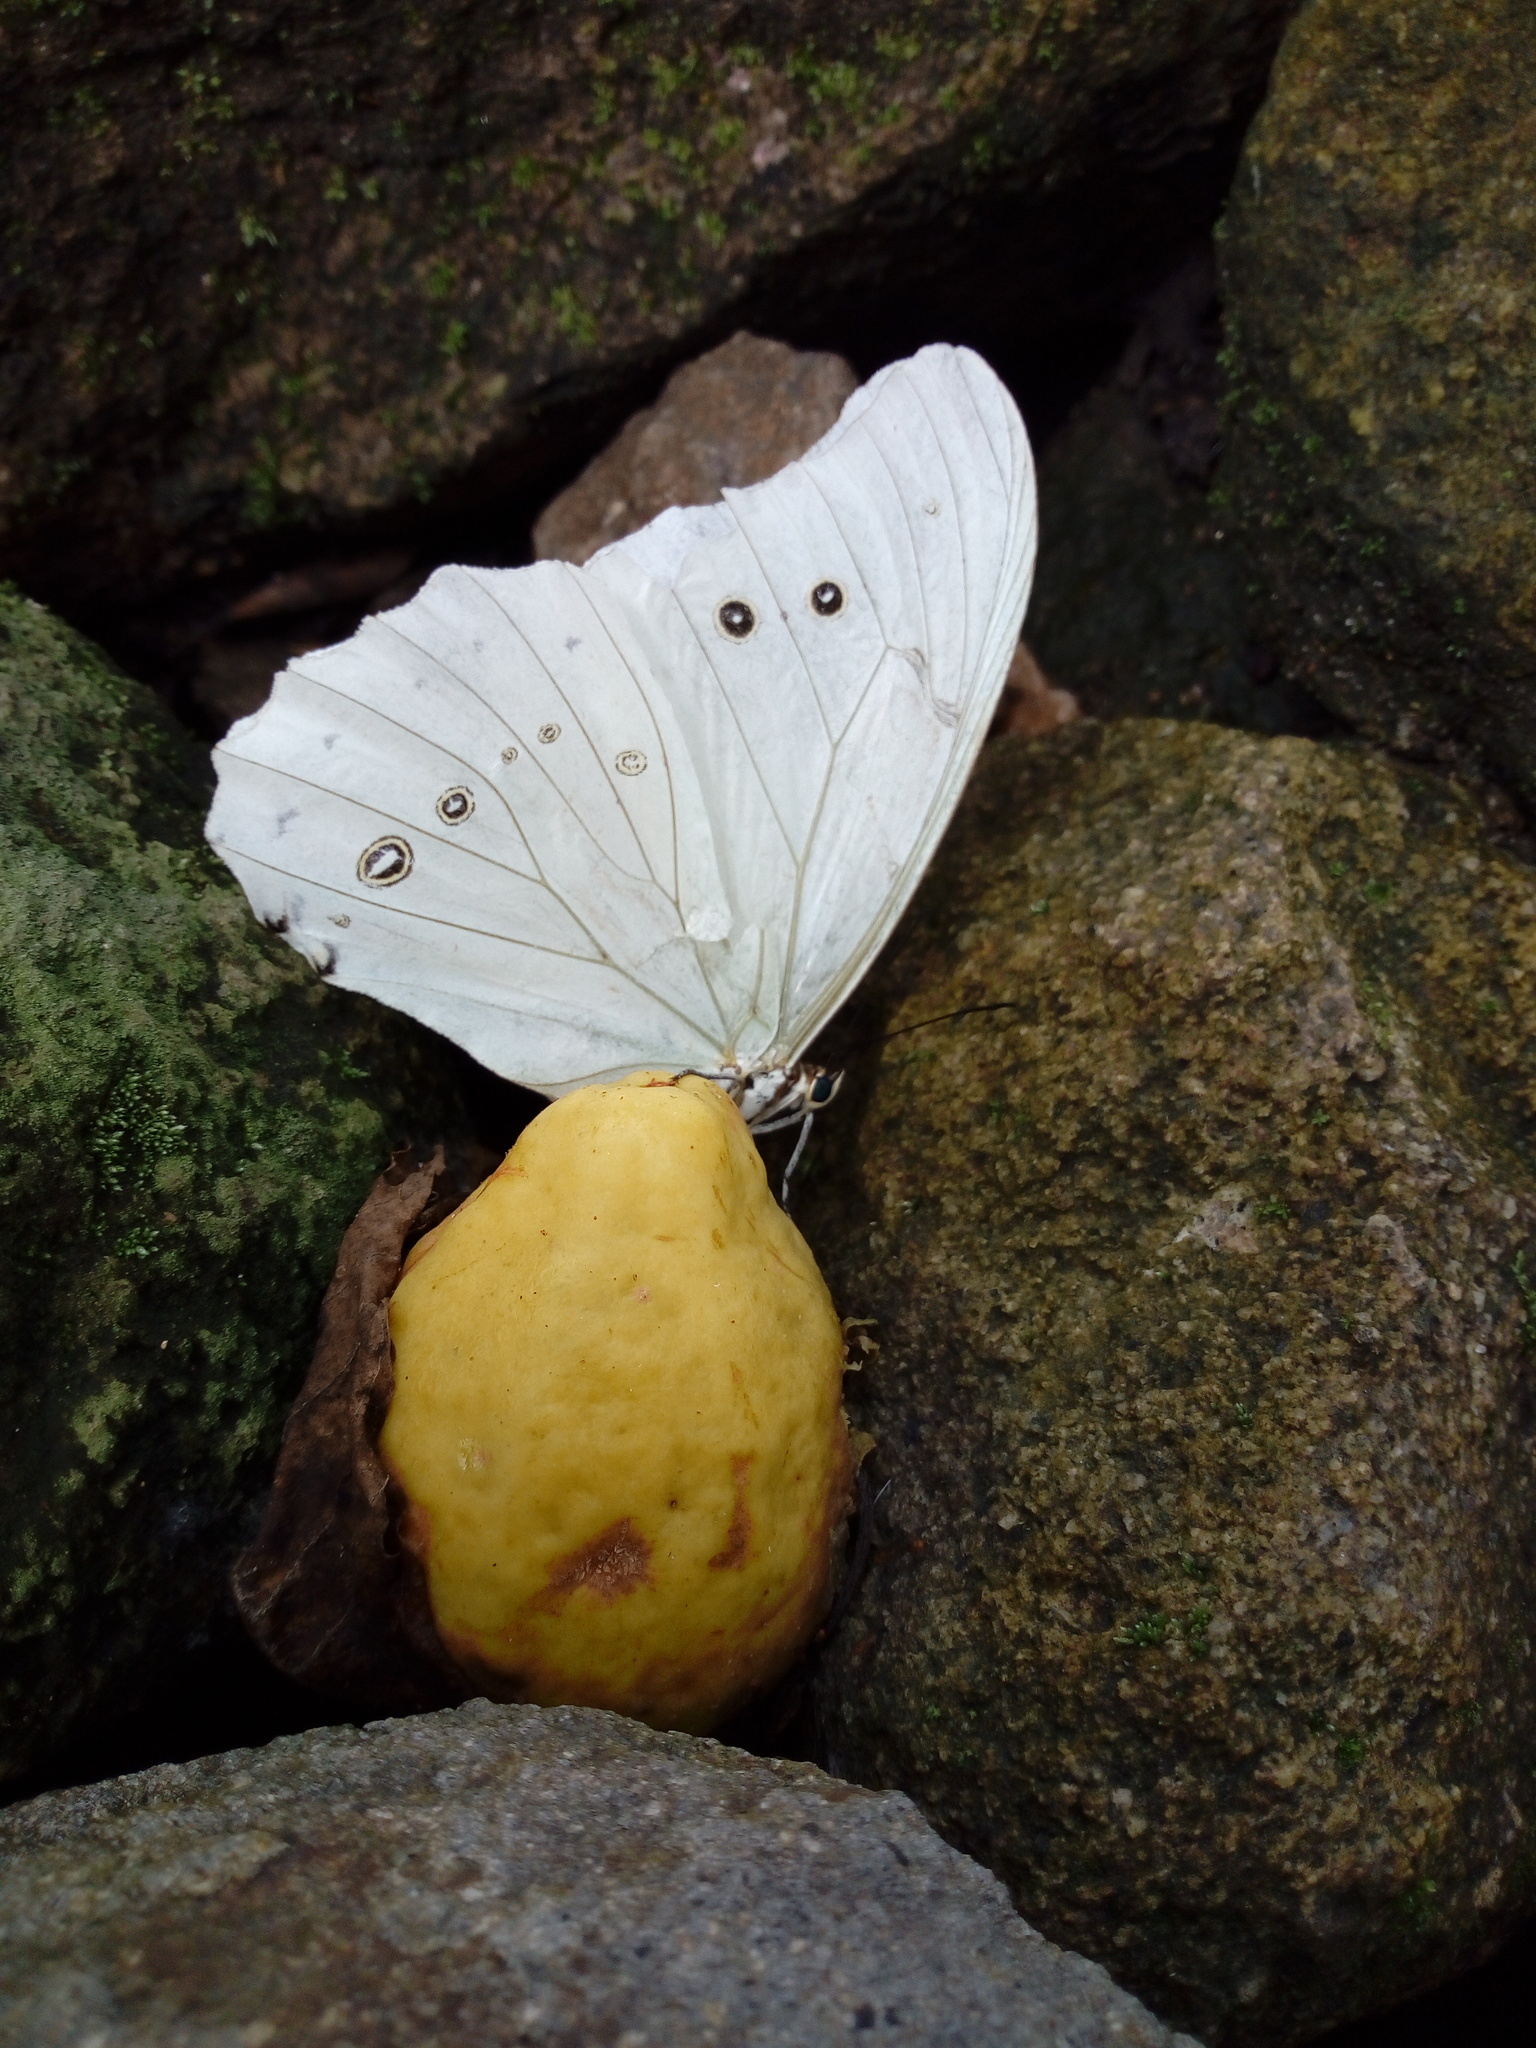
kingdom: Animalia
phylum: Arthropoda
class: Insecta
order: Lepidoptera
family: Nymphalidae
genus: Morpho
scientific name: Morpho polyphemus
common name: White morpho
